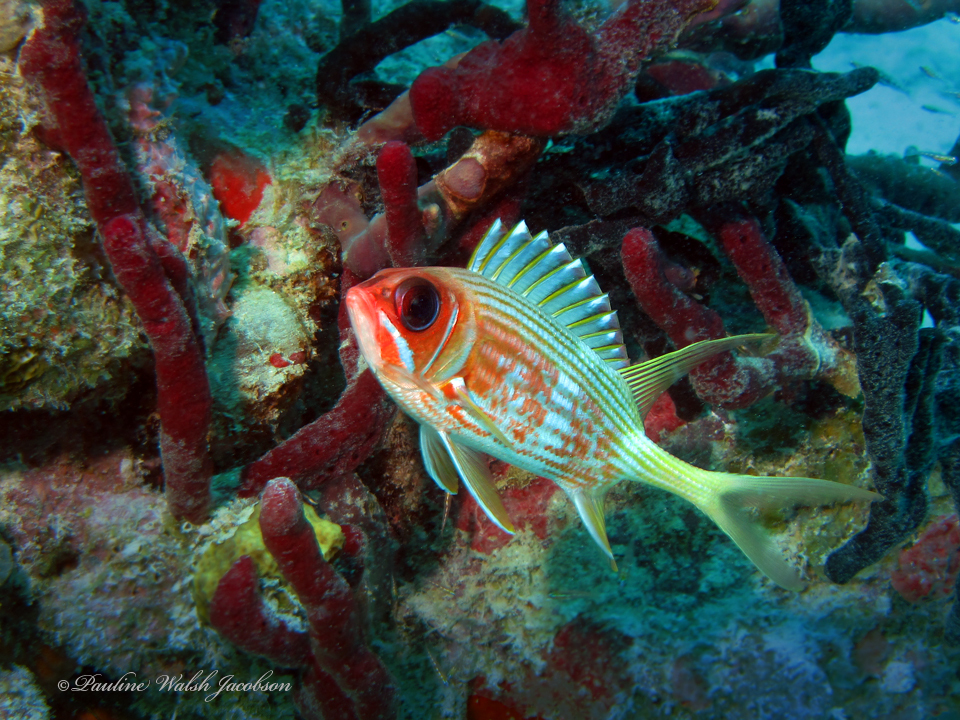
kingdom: Animalia
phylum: Chordata
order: Beryciformes
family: Holocentridae
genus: Holocentrus
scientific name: Holocentrus rufus
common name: Longspine squirrelfish
